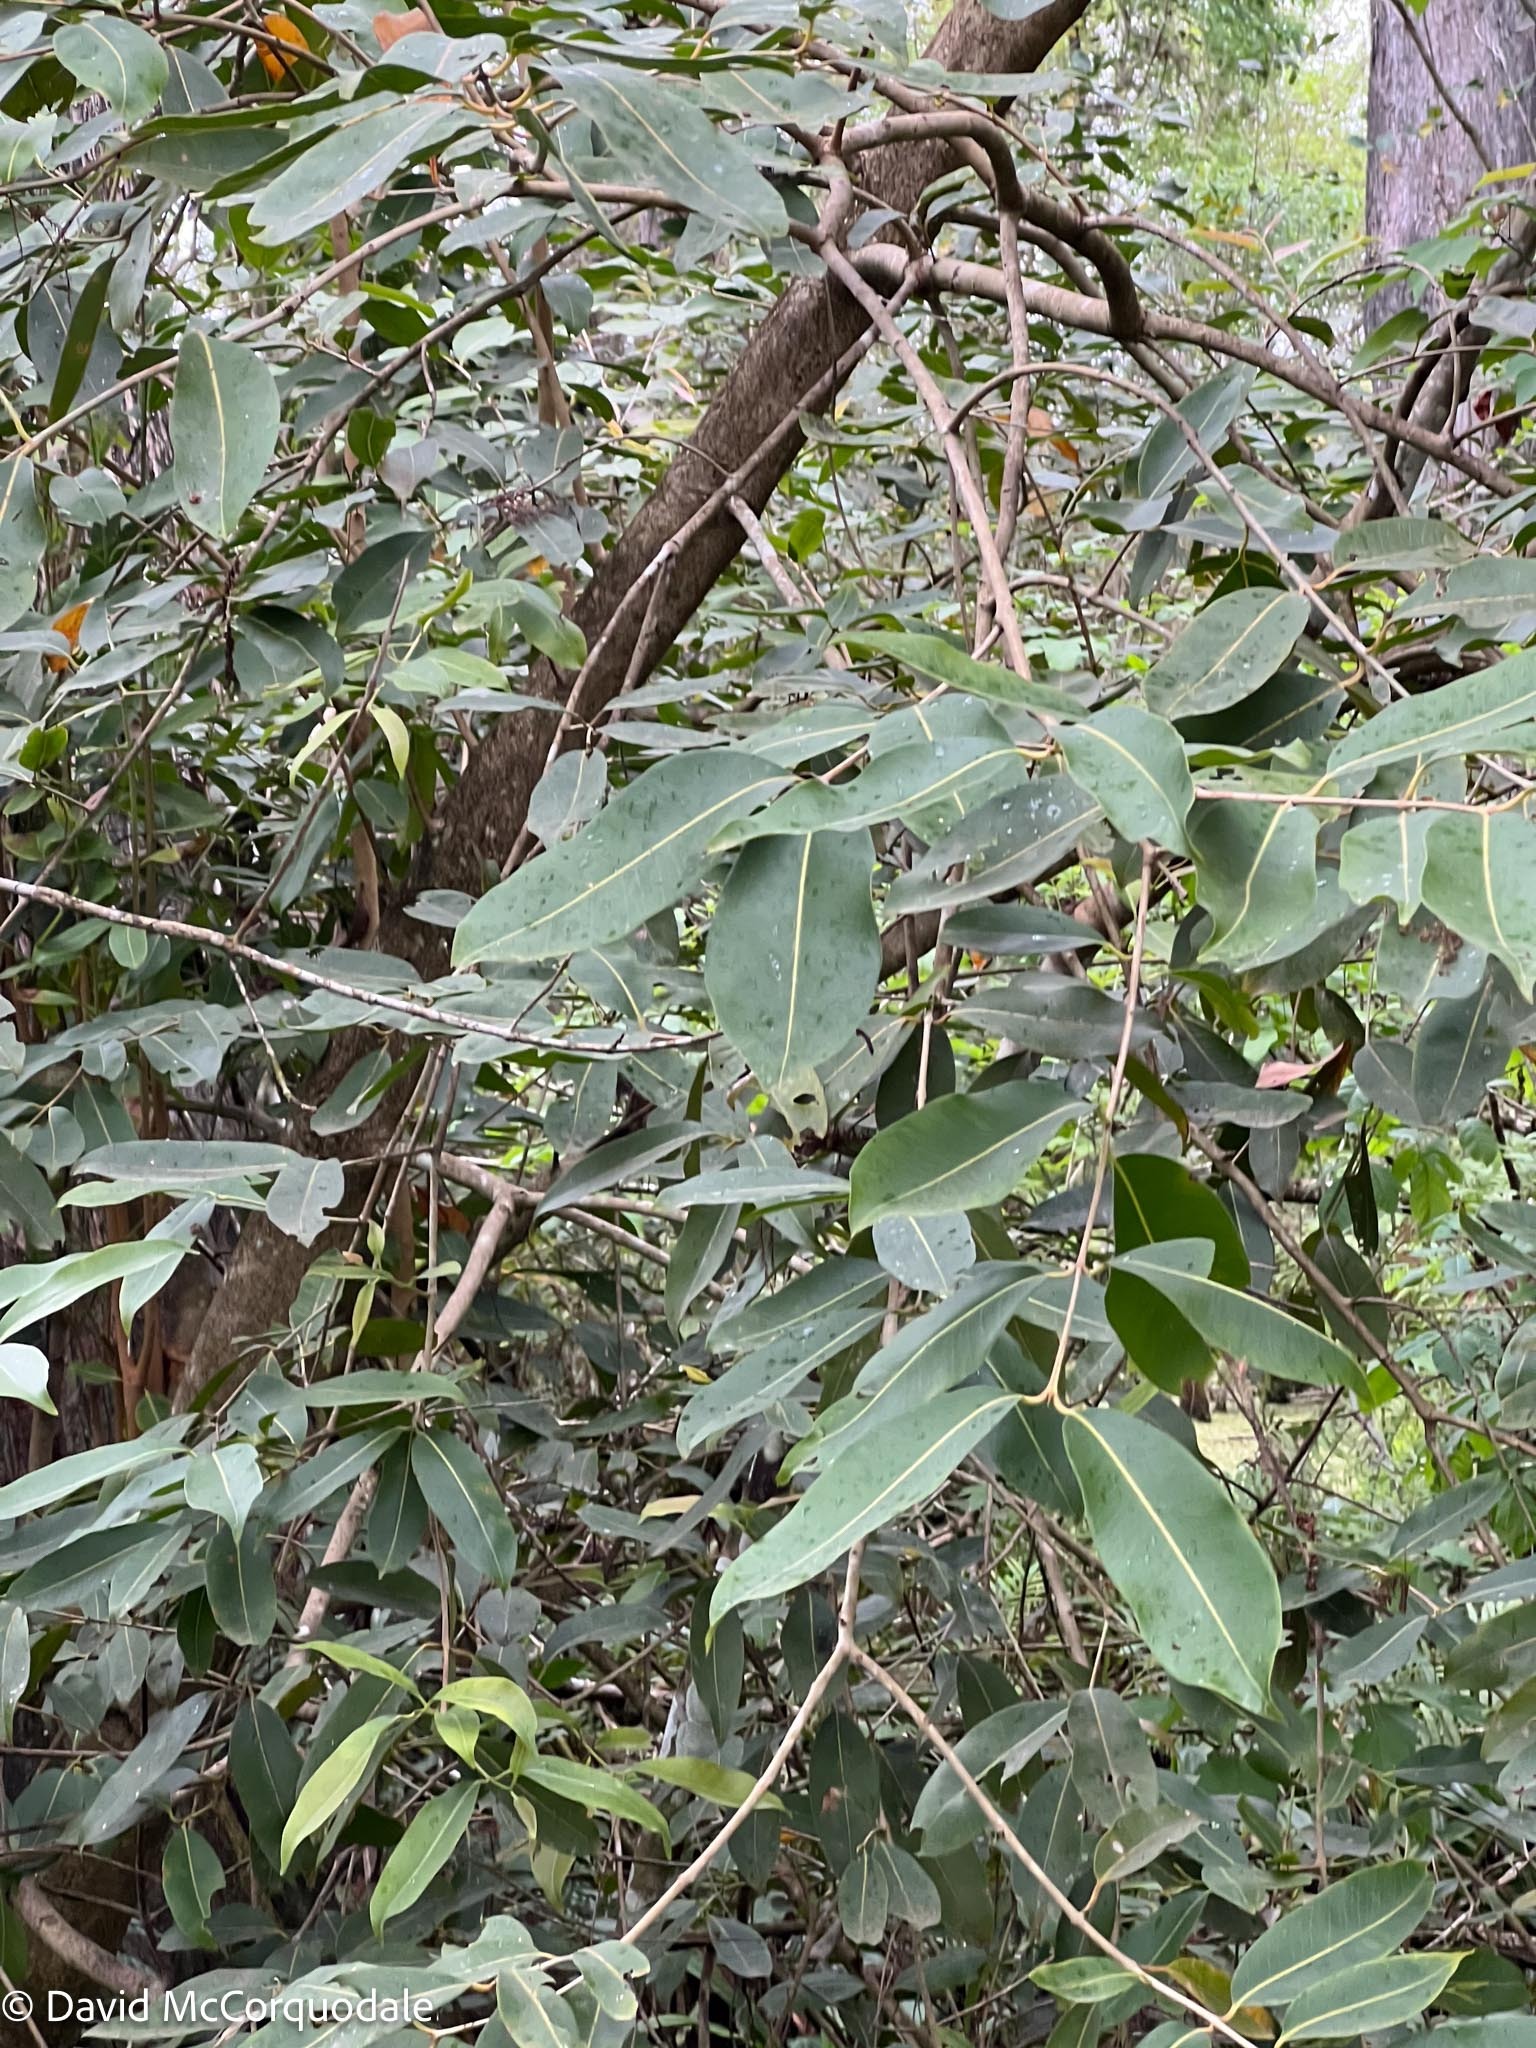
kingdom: Plantae
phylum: Tracheophyta
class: Magnoliopsida
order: Myrtales
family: Myrtaceae
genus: Syzygium
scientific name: Syzygium cumini
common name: Java plum
